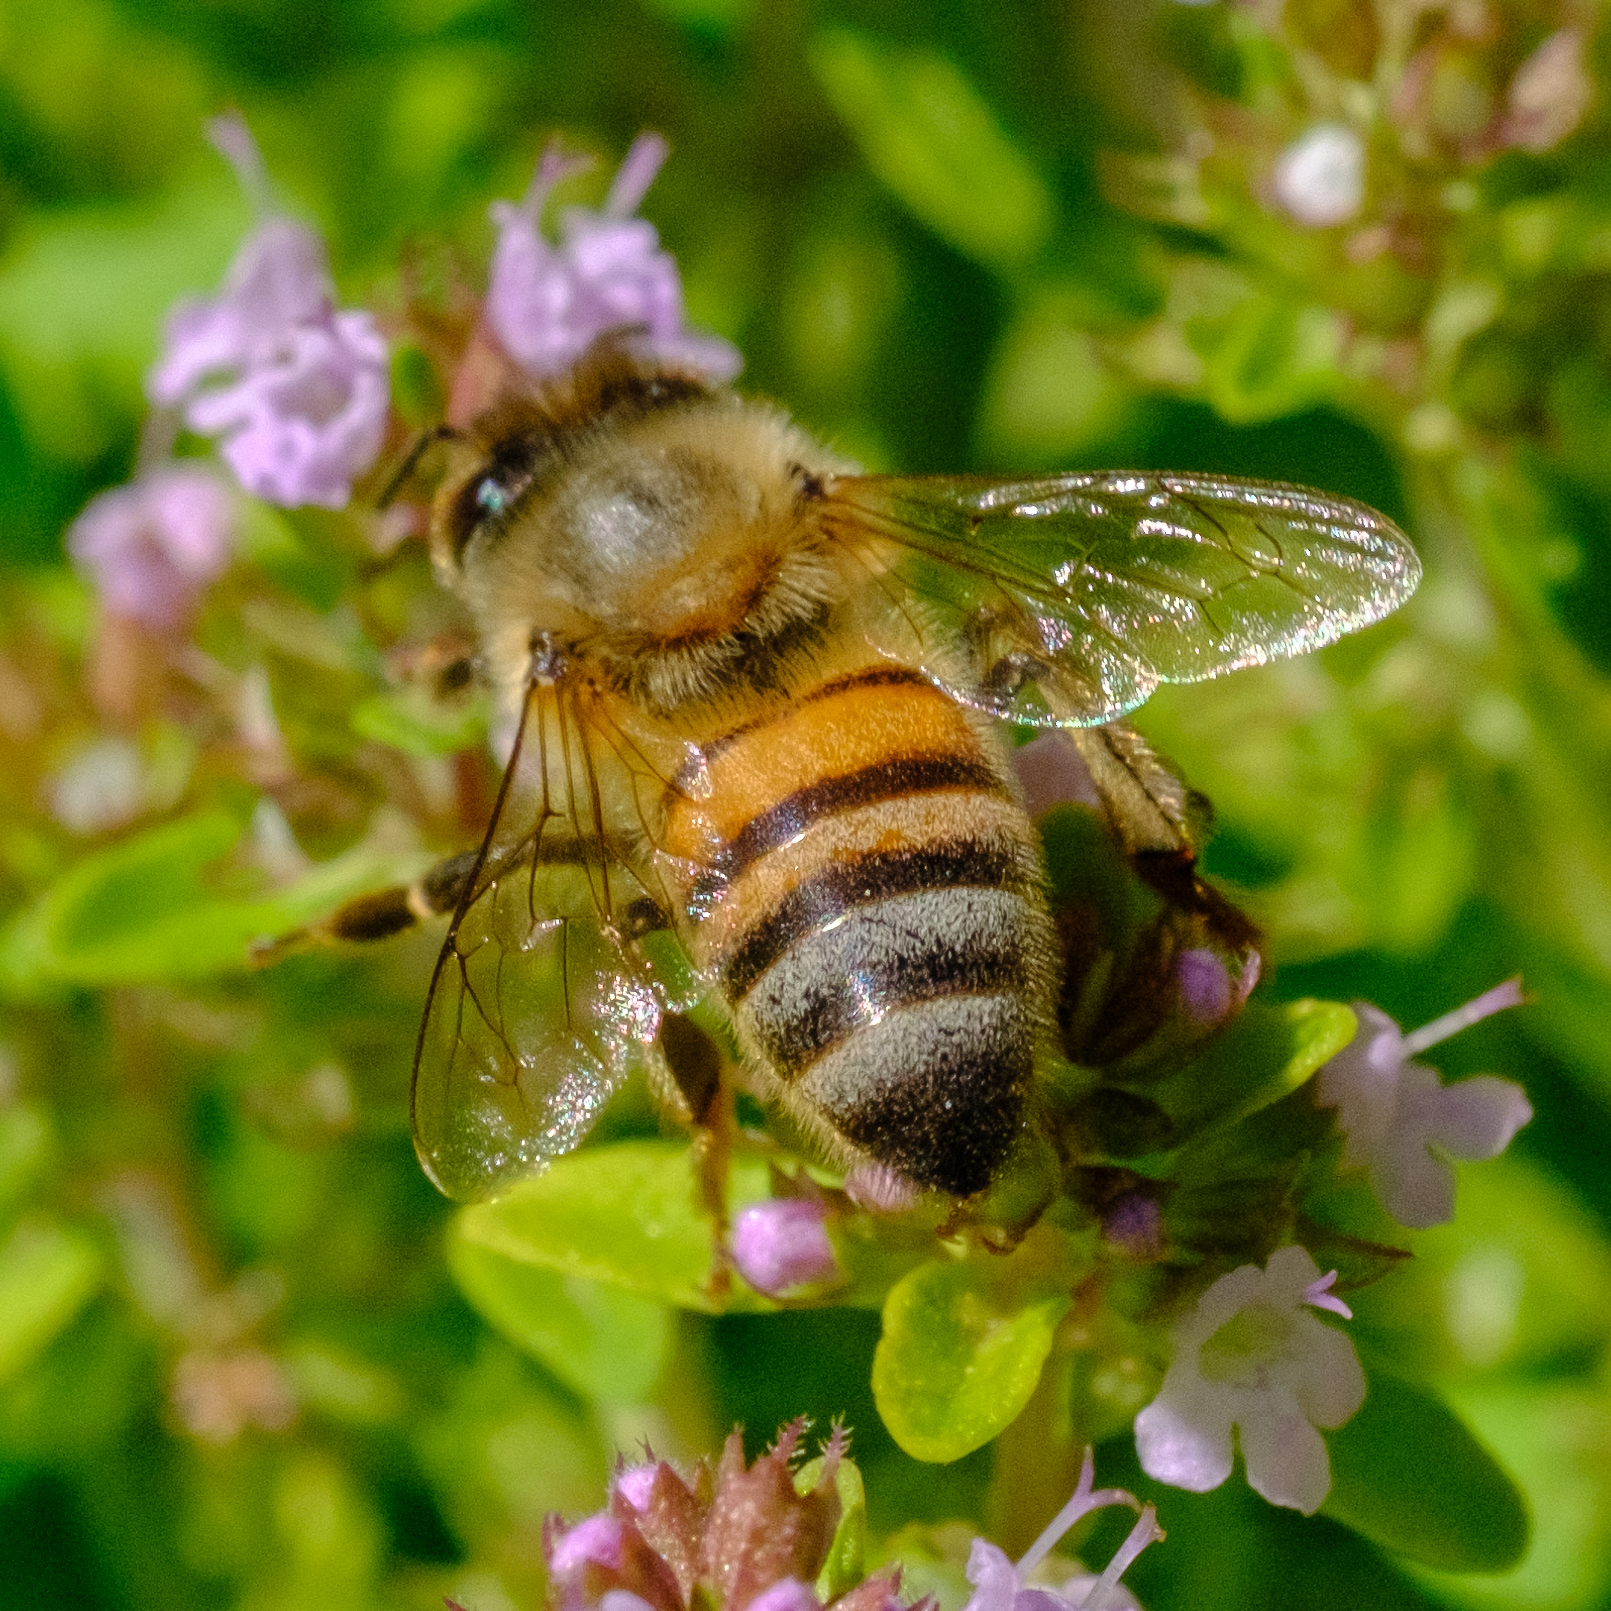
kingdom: Animalia
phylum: Arthropoda
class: Insecta
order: Hymenoptera
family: Apidae
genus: Apis
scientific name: Apis mellifera
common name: Honey bee
